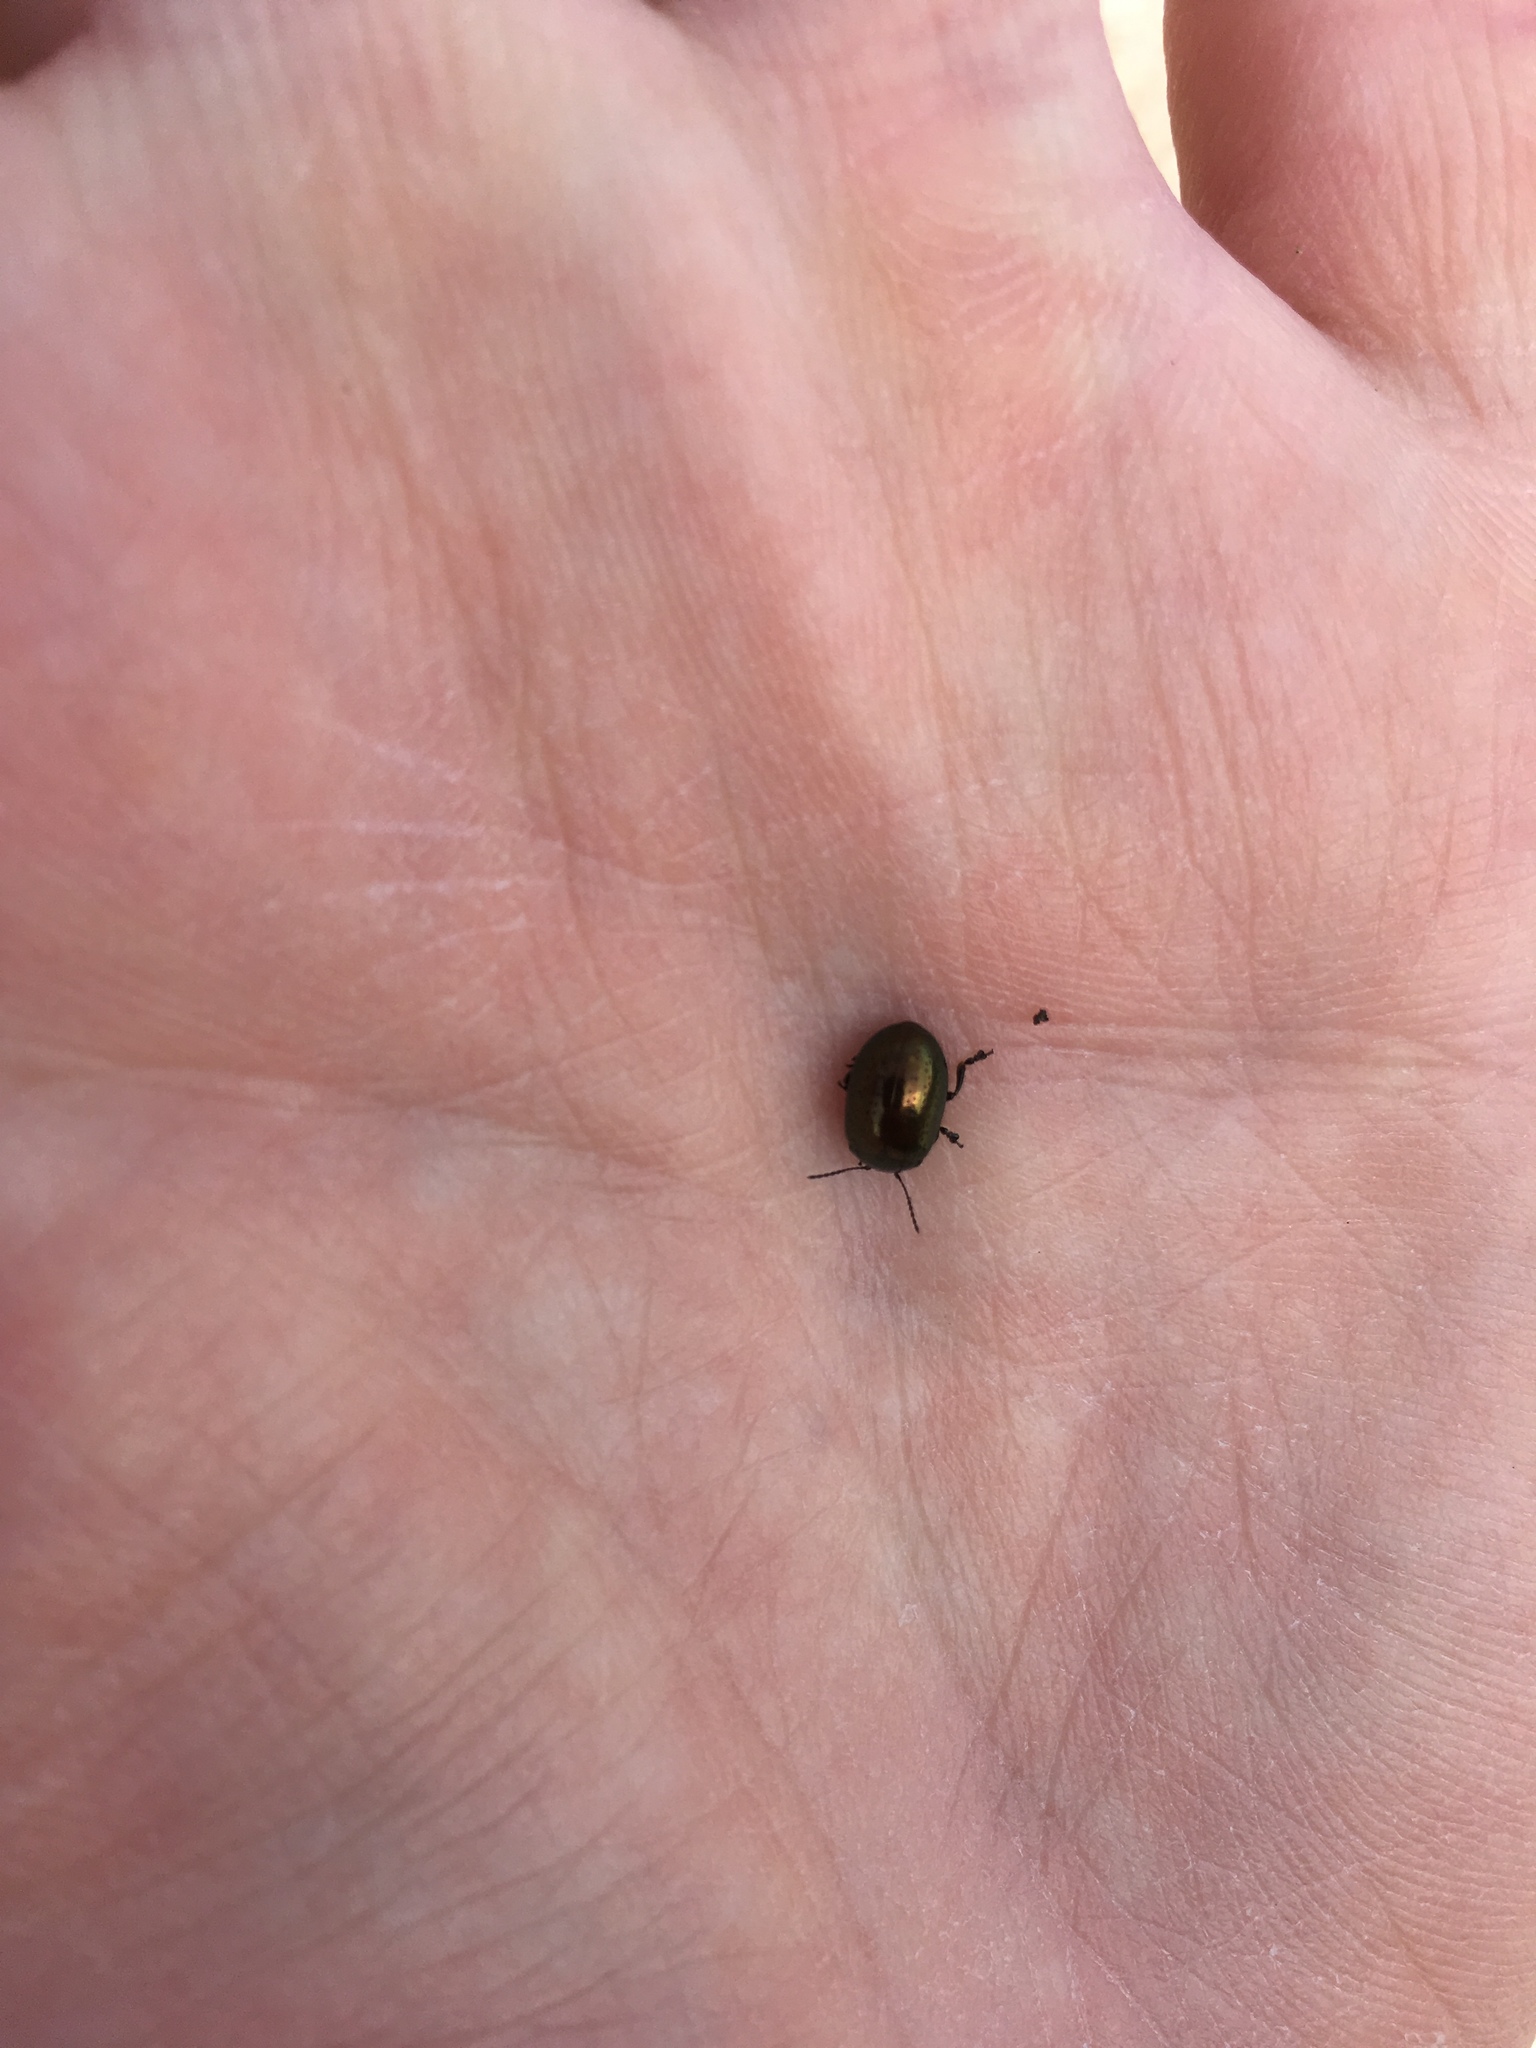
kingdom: Animalia
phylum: Arthropoda
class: Insecta
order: Coleoptera
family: Chrysomelidae
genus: Chrysolina
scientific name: Chrysolina hyperici
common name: St. johnswort beetle
